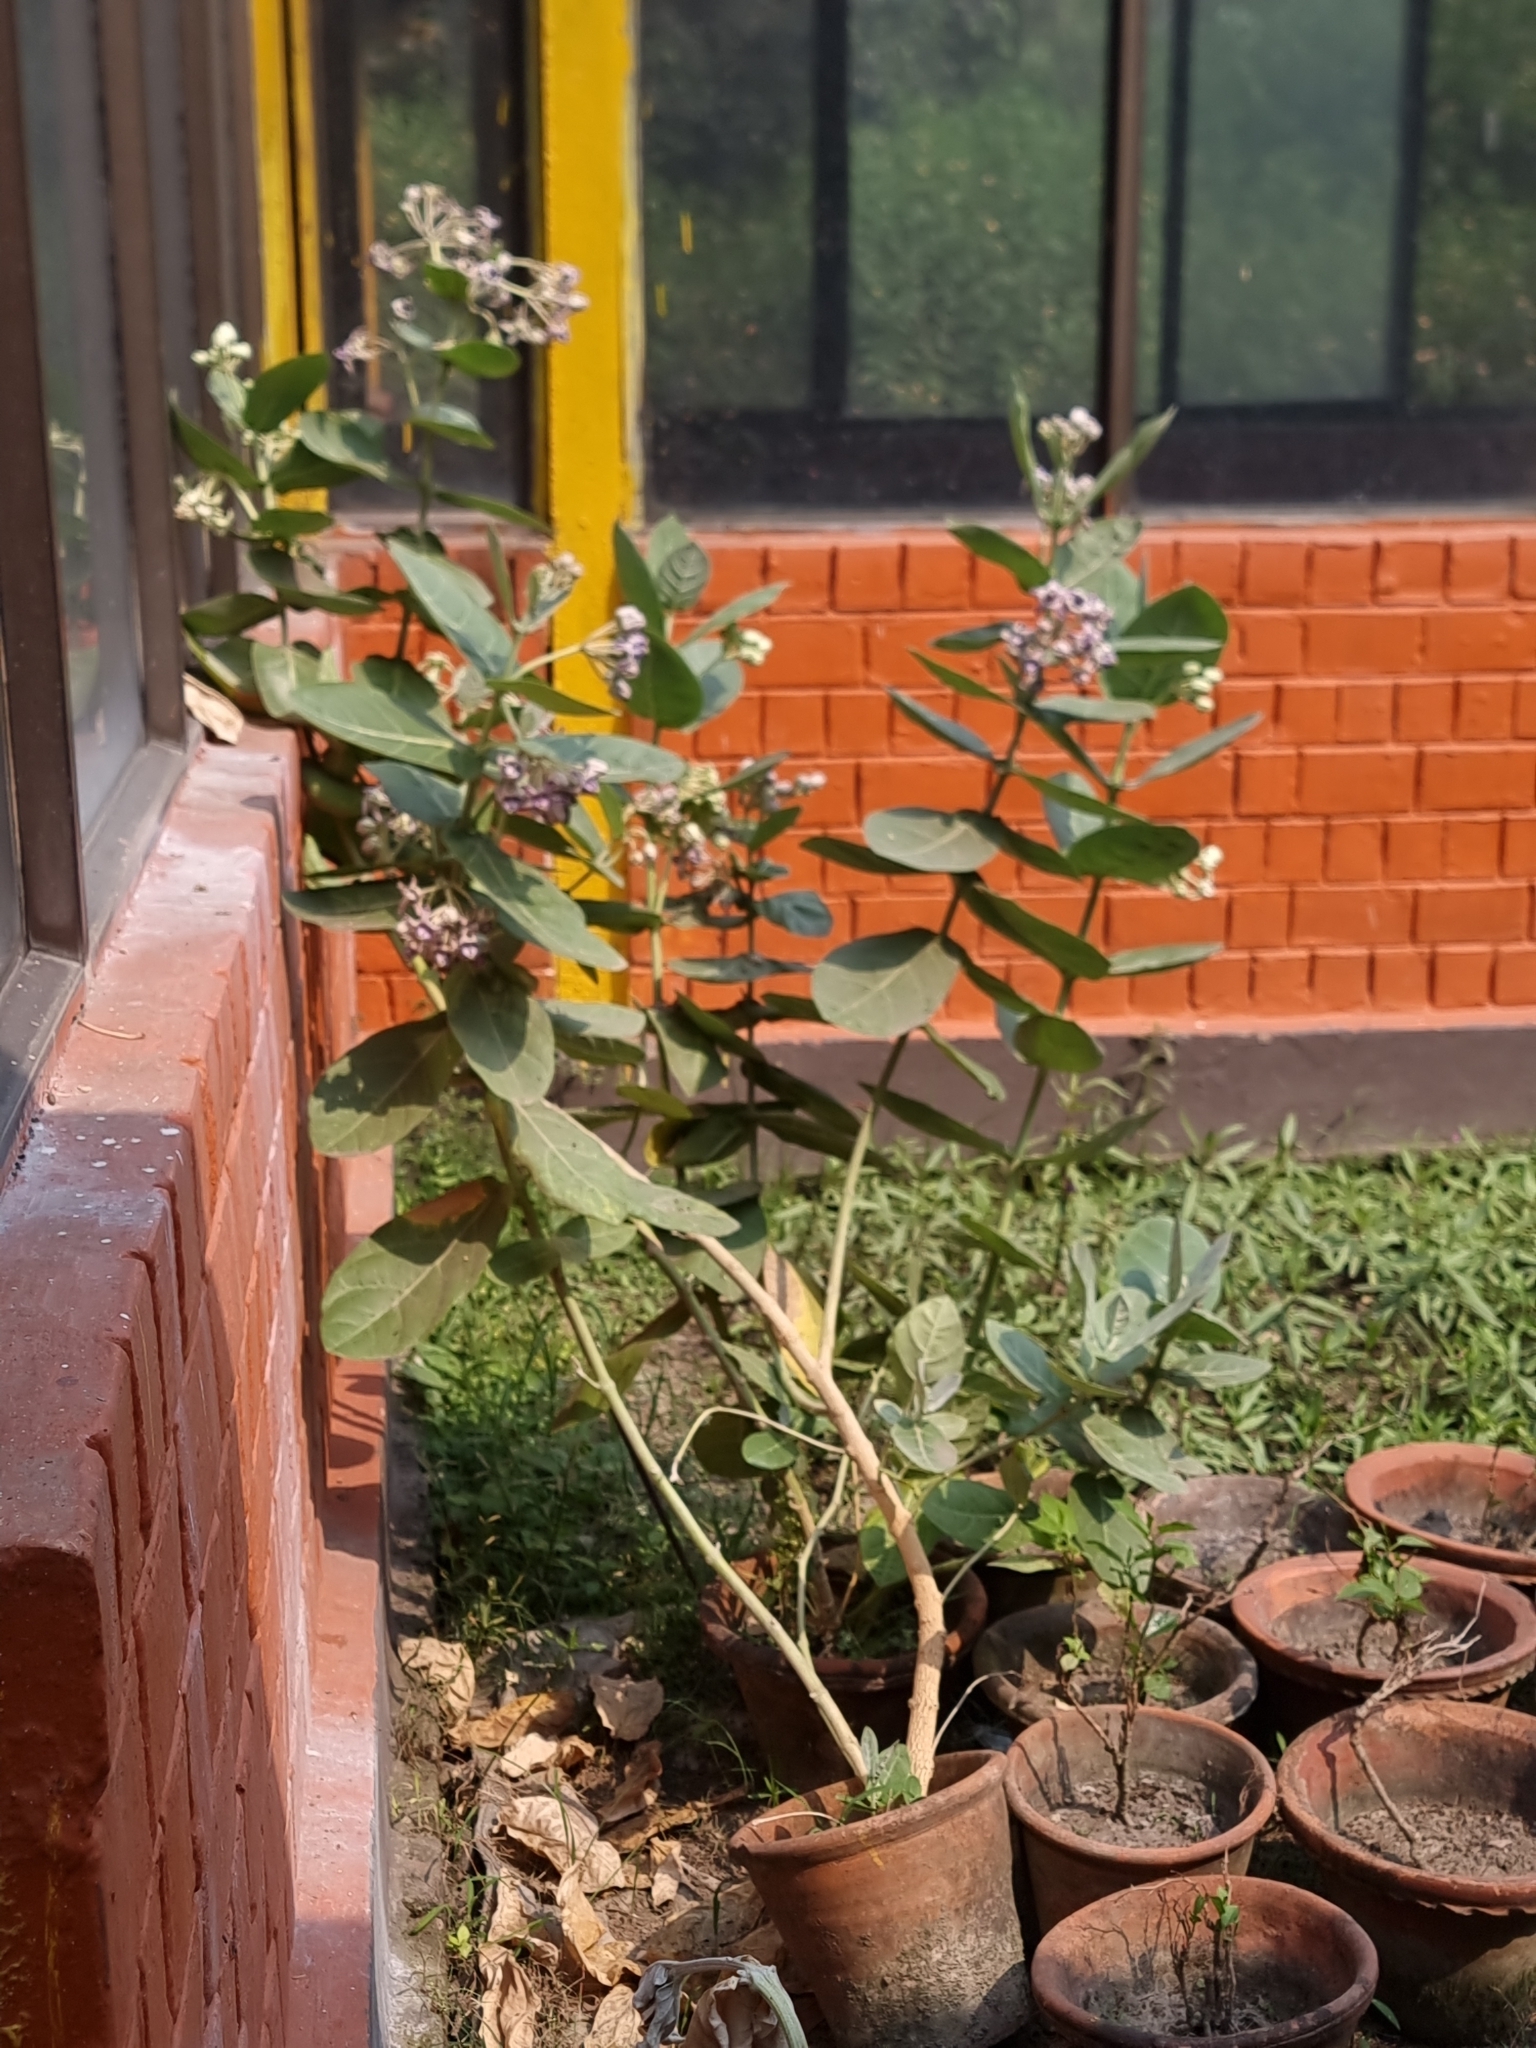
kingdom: Plantae
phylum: Tracheophyta
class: Magnoliopsida
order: Gentianales
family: Apocynaceae
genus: Calotropis
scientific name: Calotropis gigantea
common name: Crown flower
